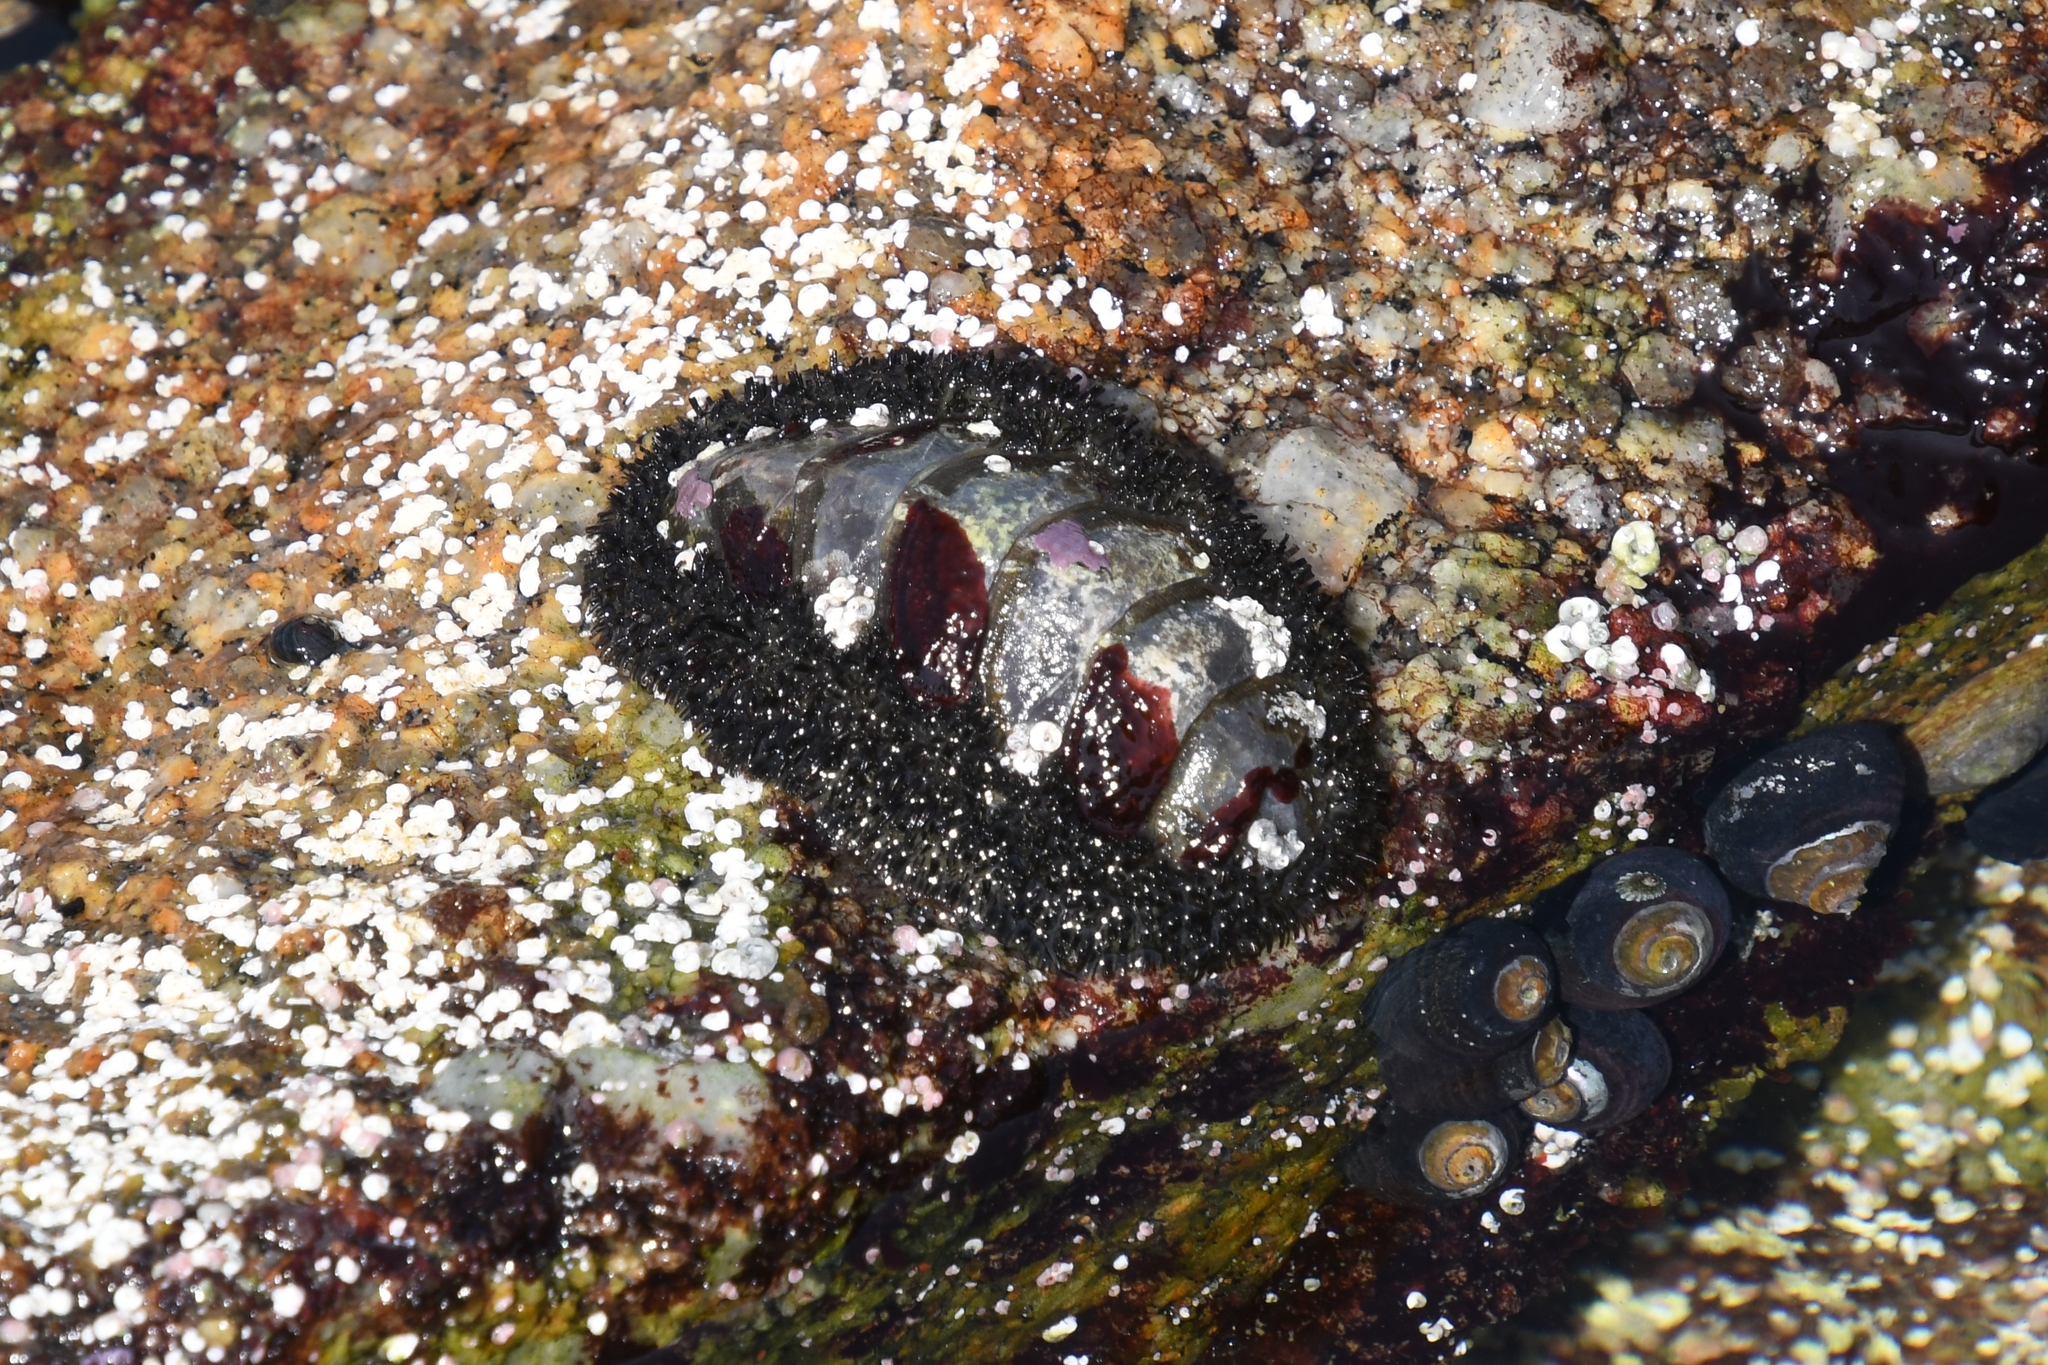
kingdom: Animalia
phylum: Mollusca
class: Polyplacophora
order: Chitonida
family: Mopaliidae
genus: Mopalia
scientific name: Mopalia muscosa
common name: Mossy chiton
